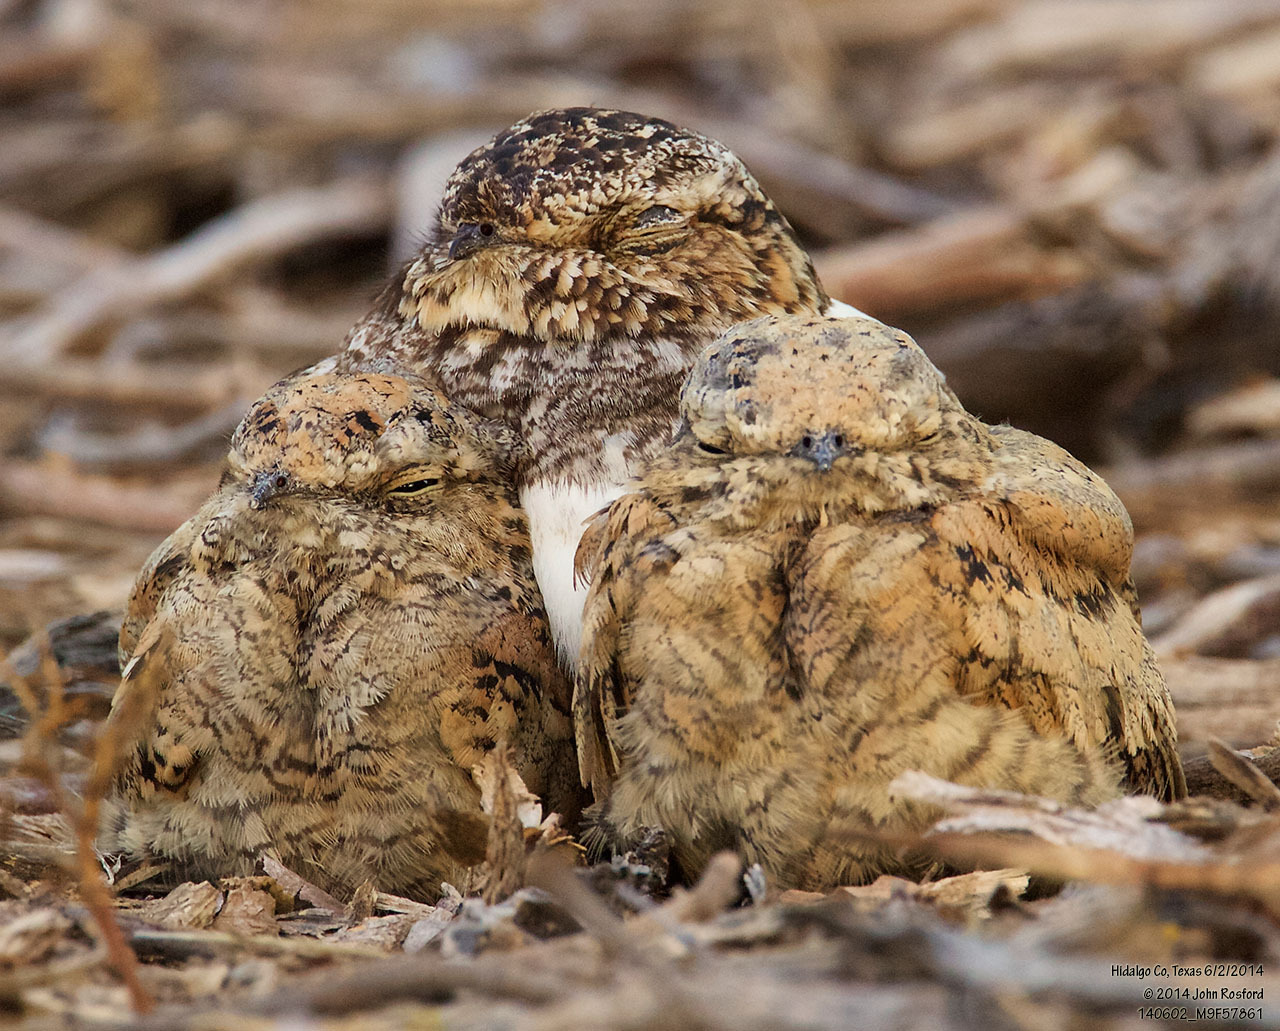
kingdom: Animalia
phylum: Chordata
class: Aves
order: Caprimulgiformes
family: Caprimulgidae
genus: Chordeiles
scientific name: Chordeiles acutipennis
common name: Lesser nighthawk
